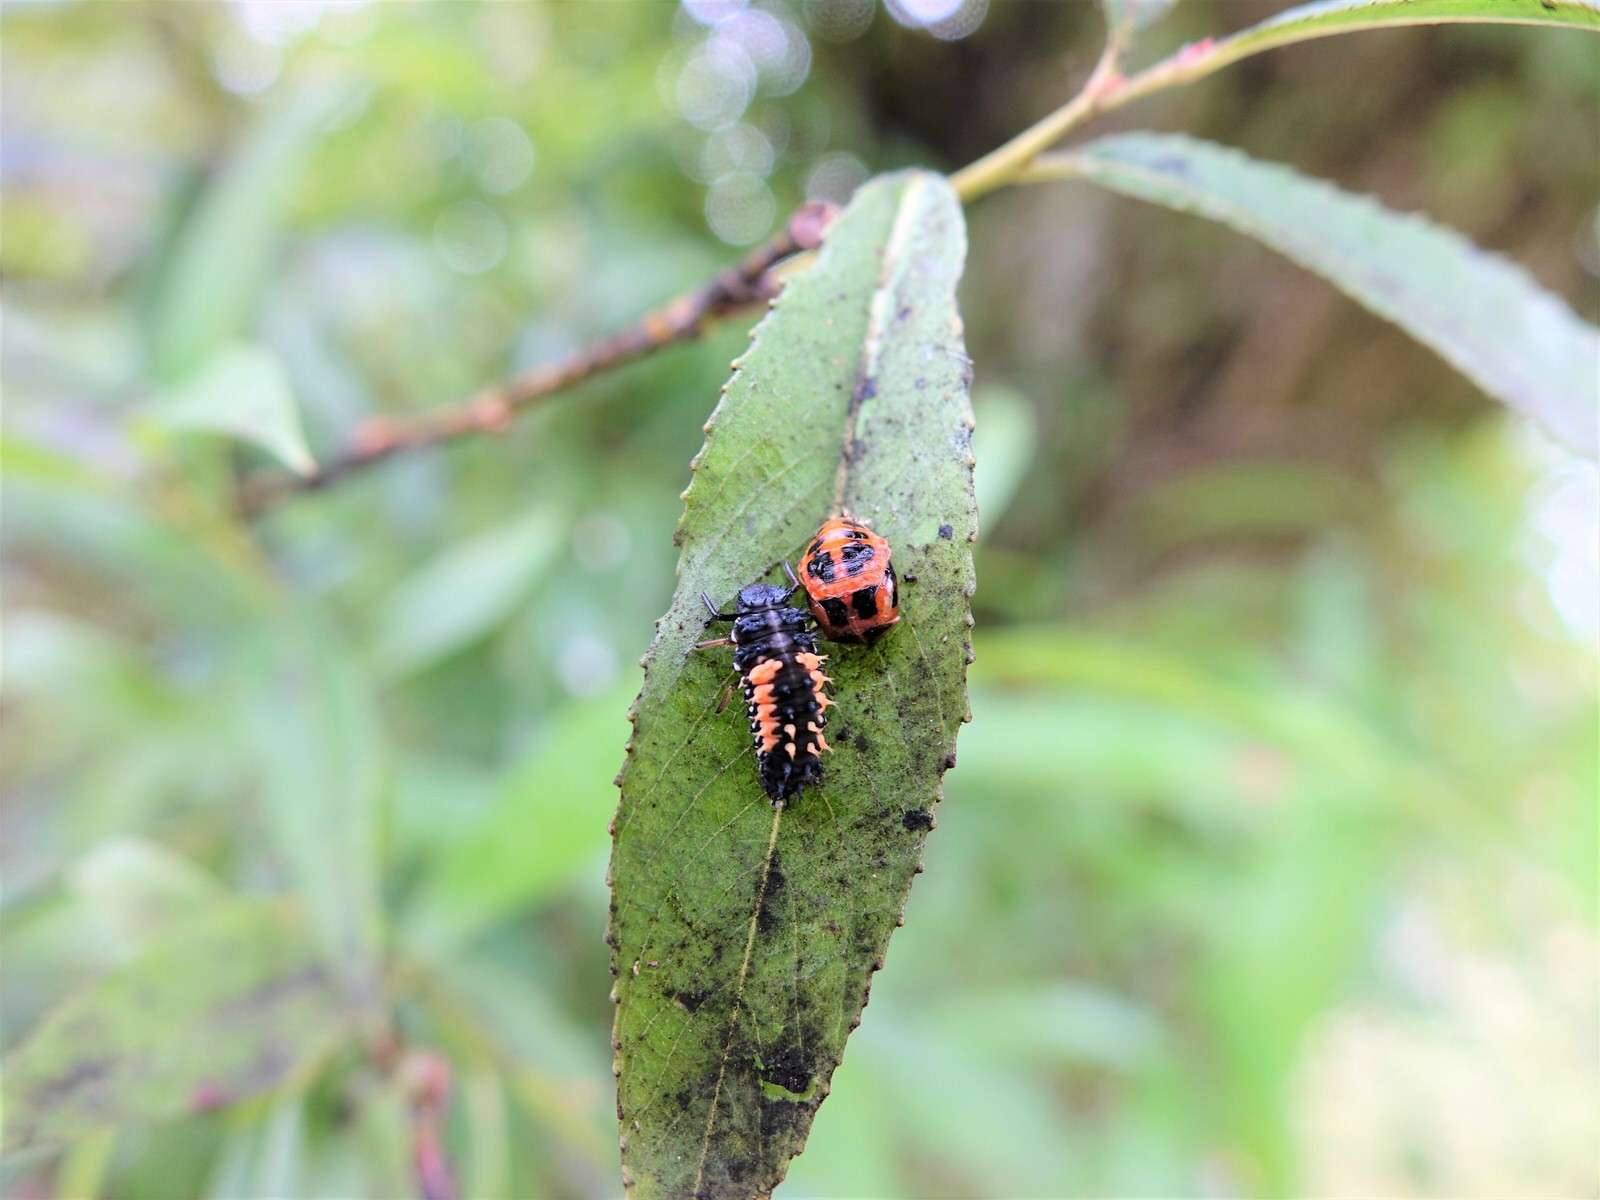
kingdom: Animalia
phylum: Arthropoda
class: Insecta
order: Coleoptera
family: Coccinellidae
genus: Harmonia
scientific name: Harmonia axyridis
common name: Harlequin ladybird
